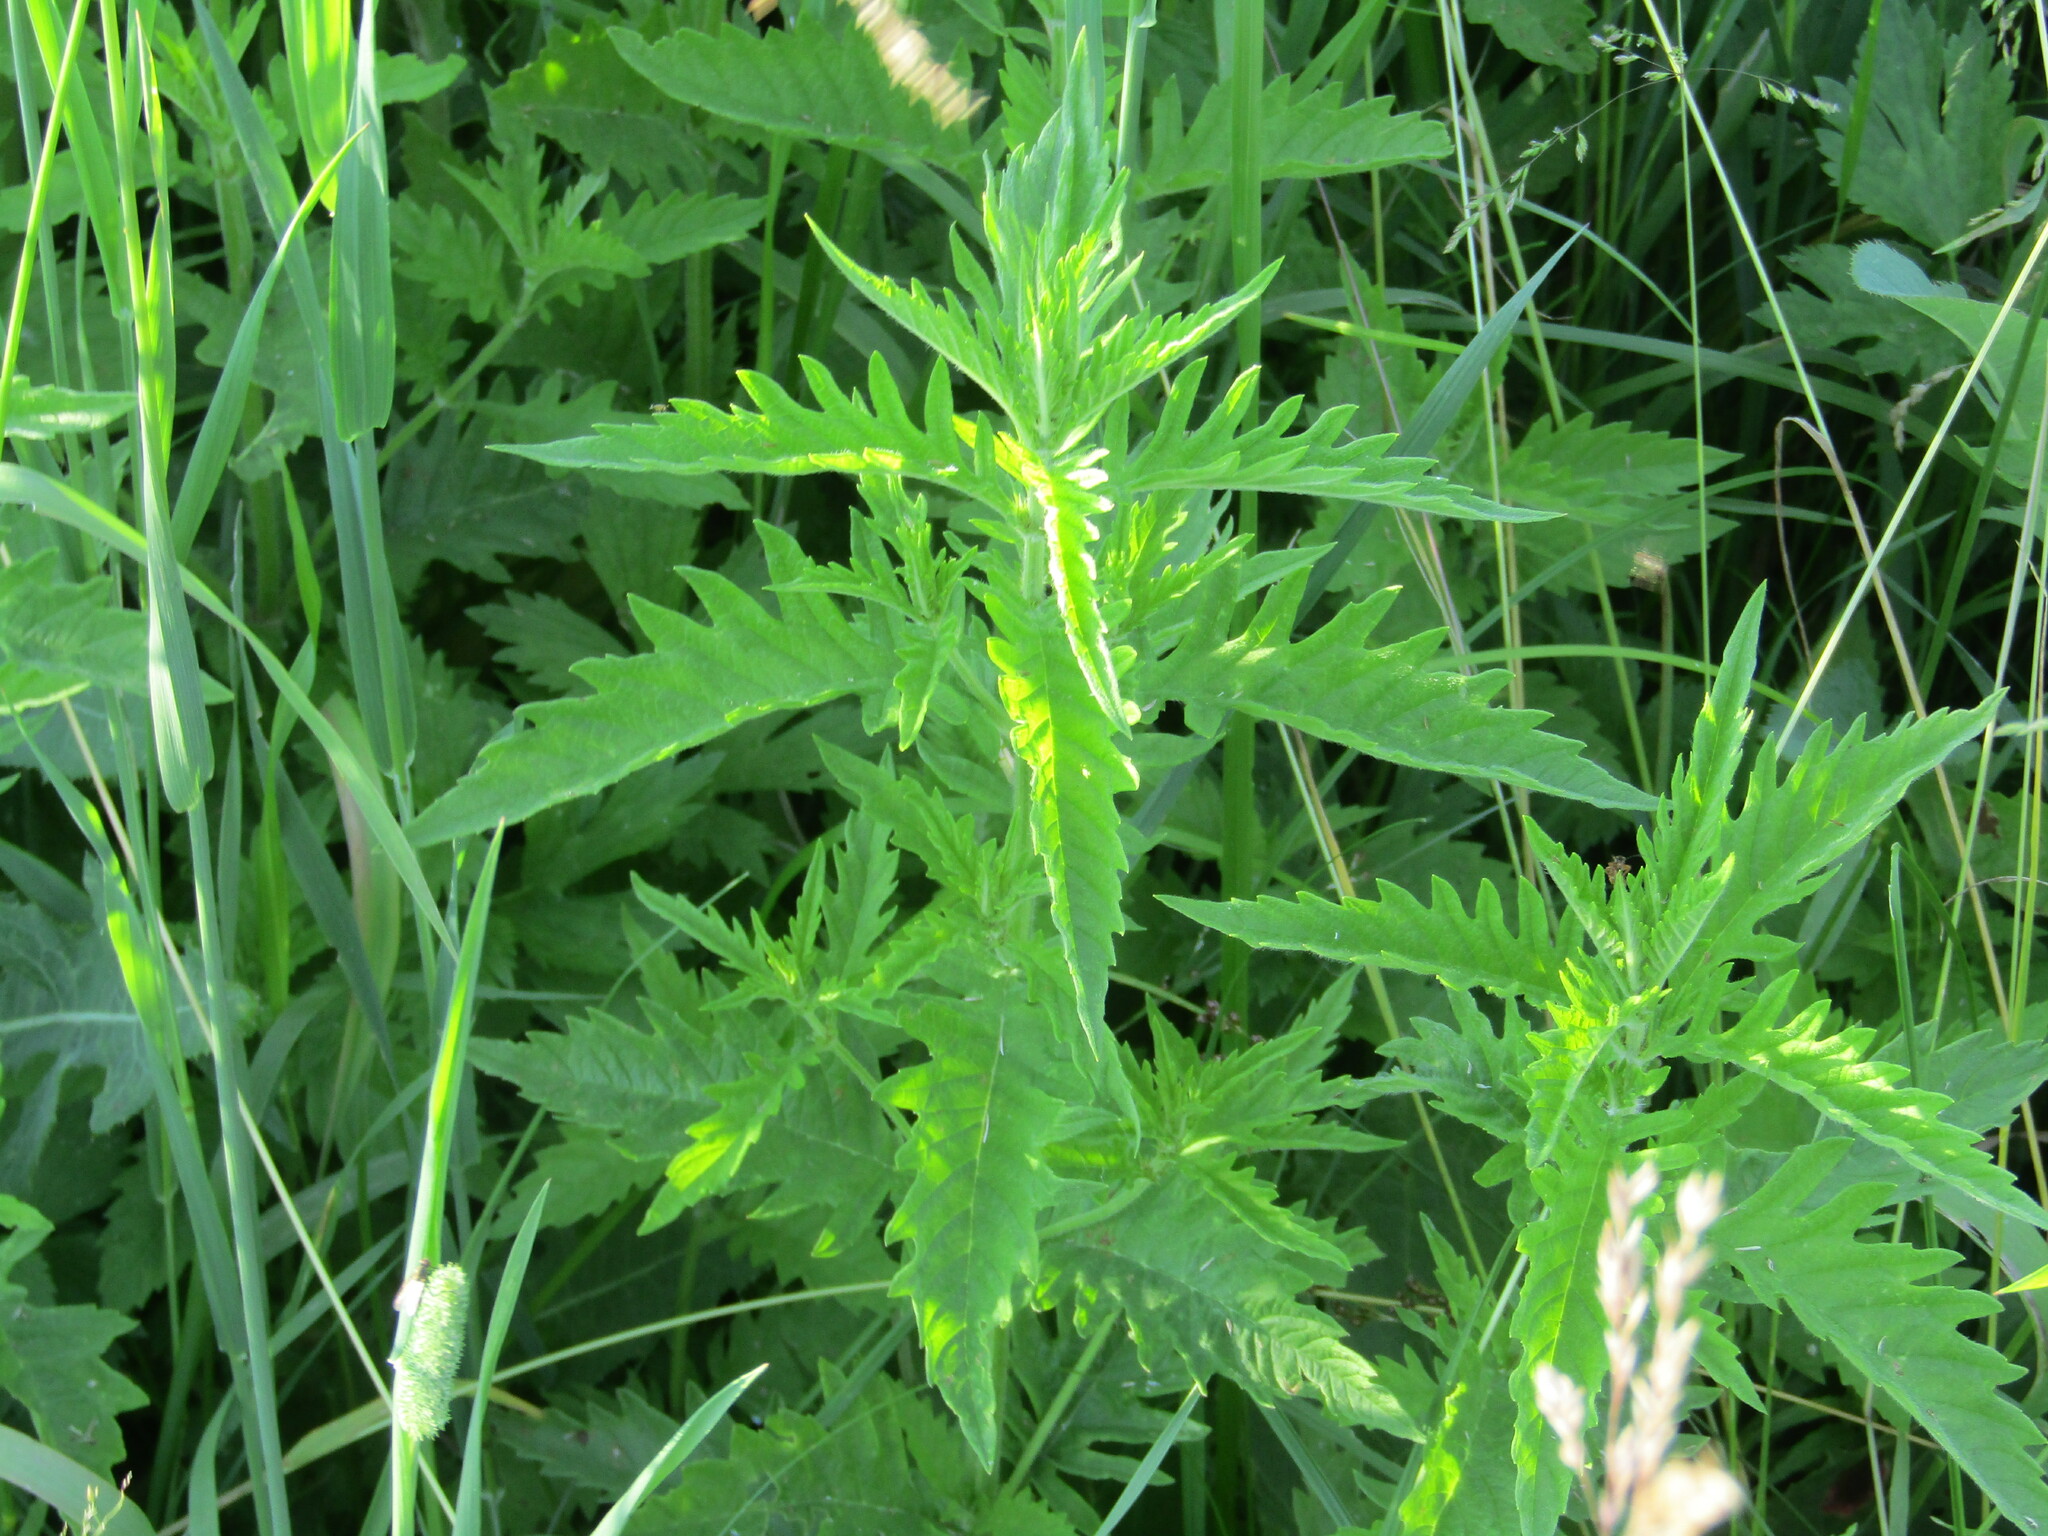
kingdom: Plantae
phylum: Tracheophyta
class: Magnoliopsida
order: Lamiales
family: Lamiaceae
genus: Lycopus
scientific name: Lycopus europaeus
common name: European bugleweed
